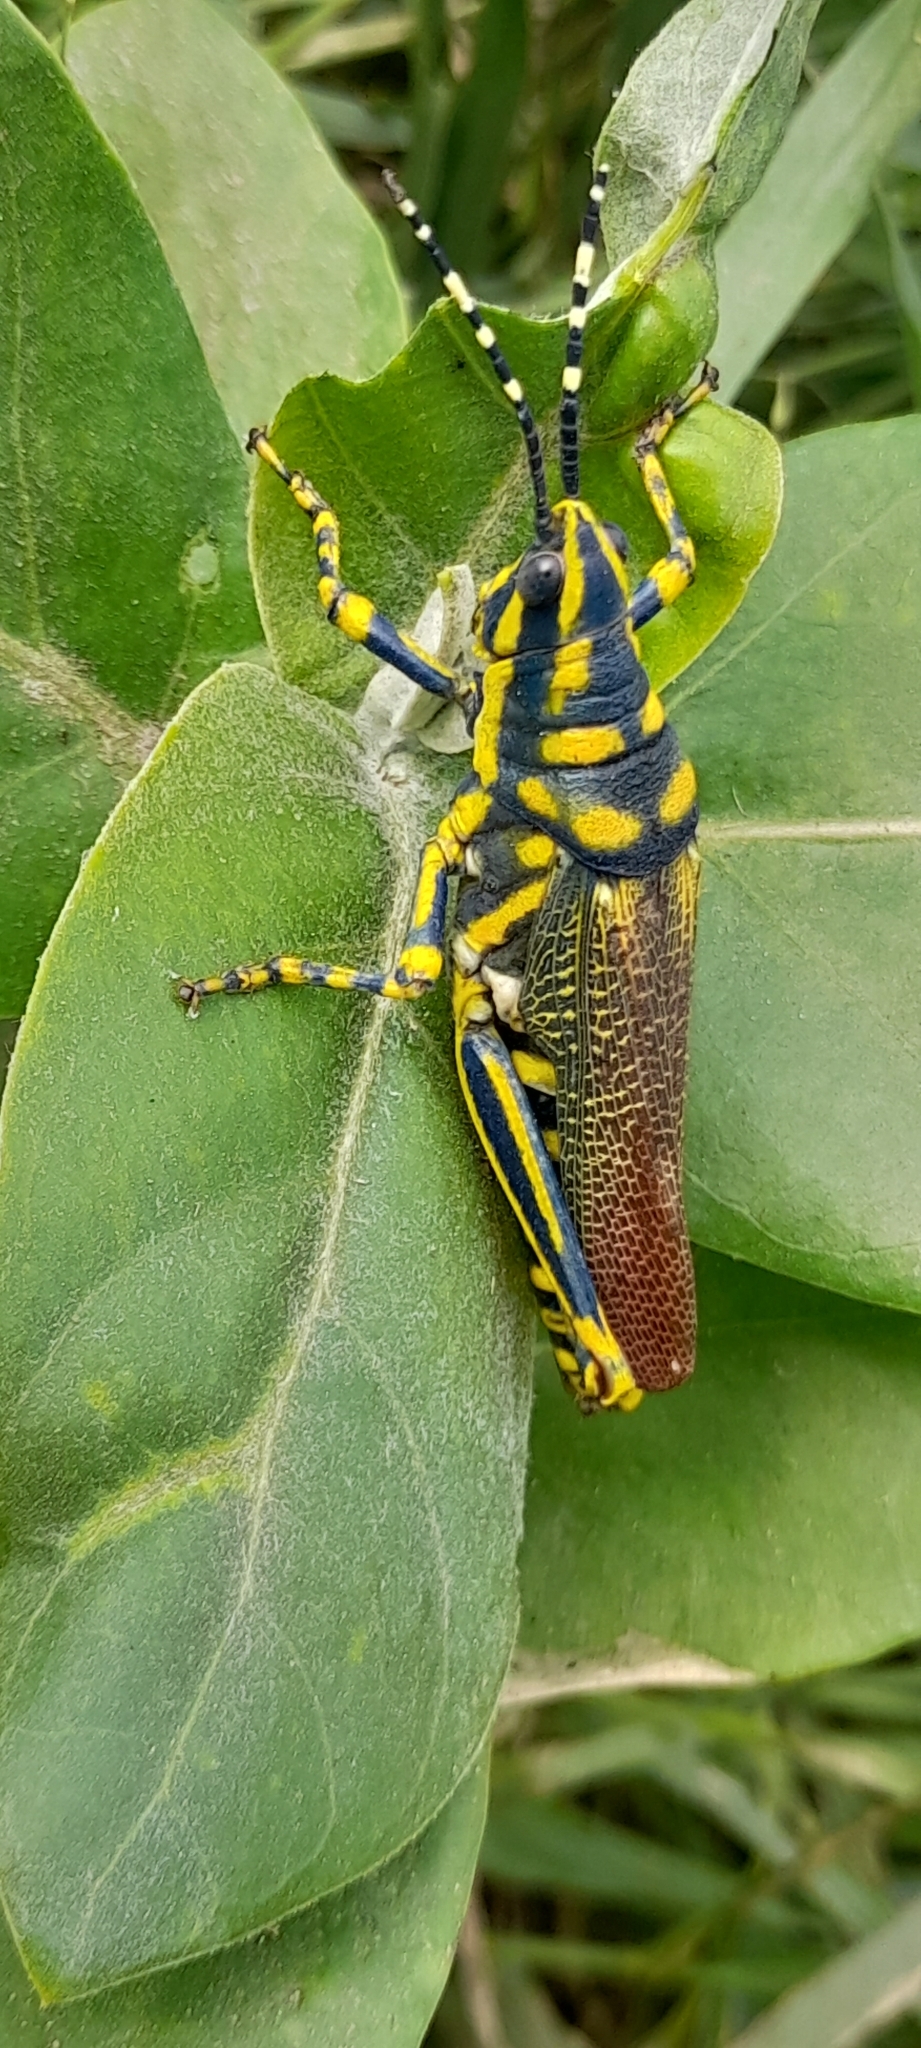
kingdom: Animalia
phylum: Arthropoda
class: Insecta
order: Orthoptera
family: Pyrgomorphidae
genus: Poekilocerus
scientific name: Poekilocerus pictus
